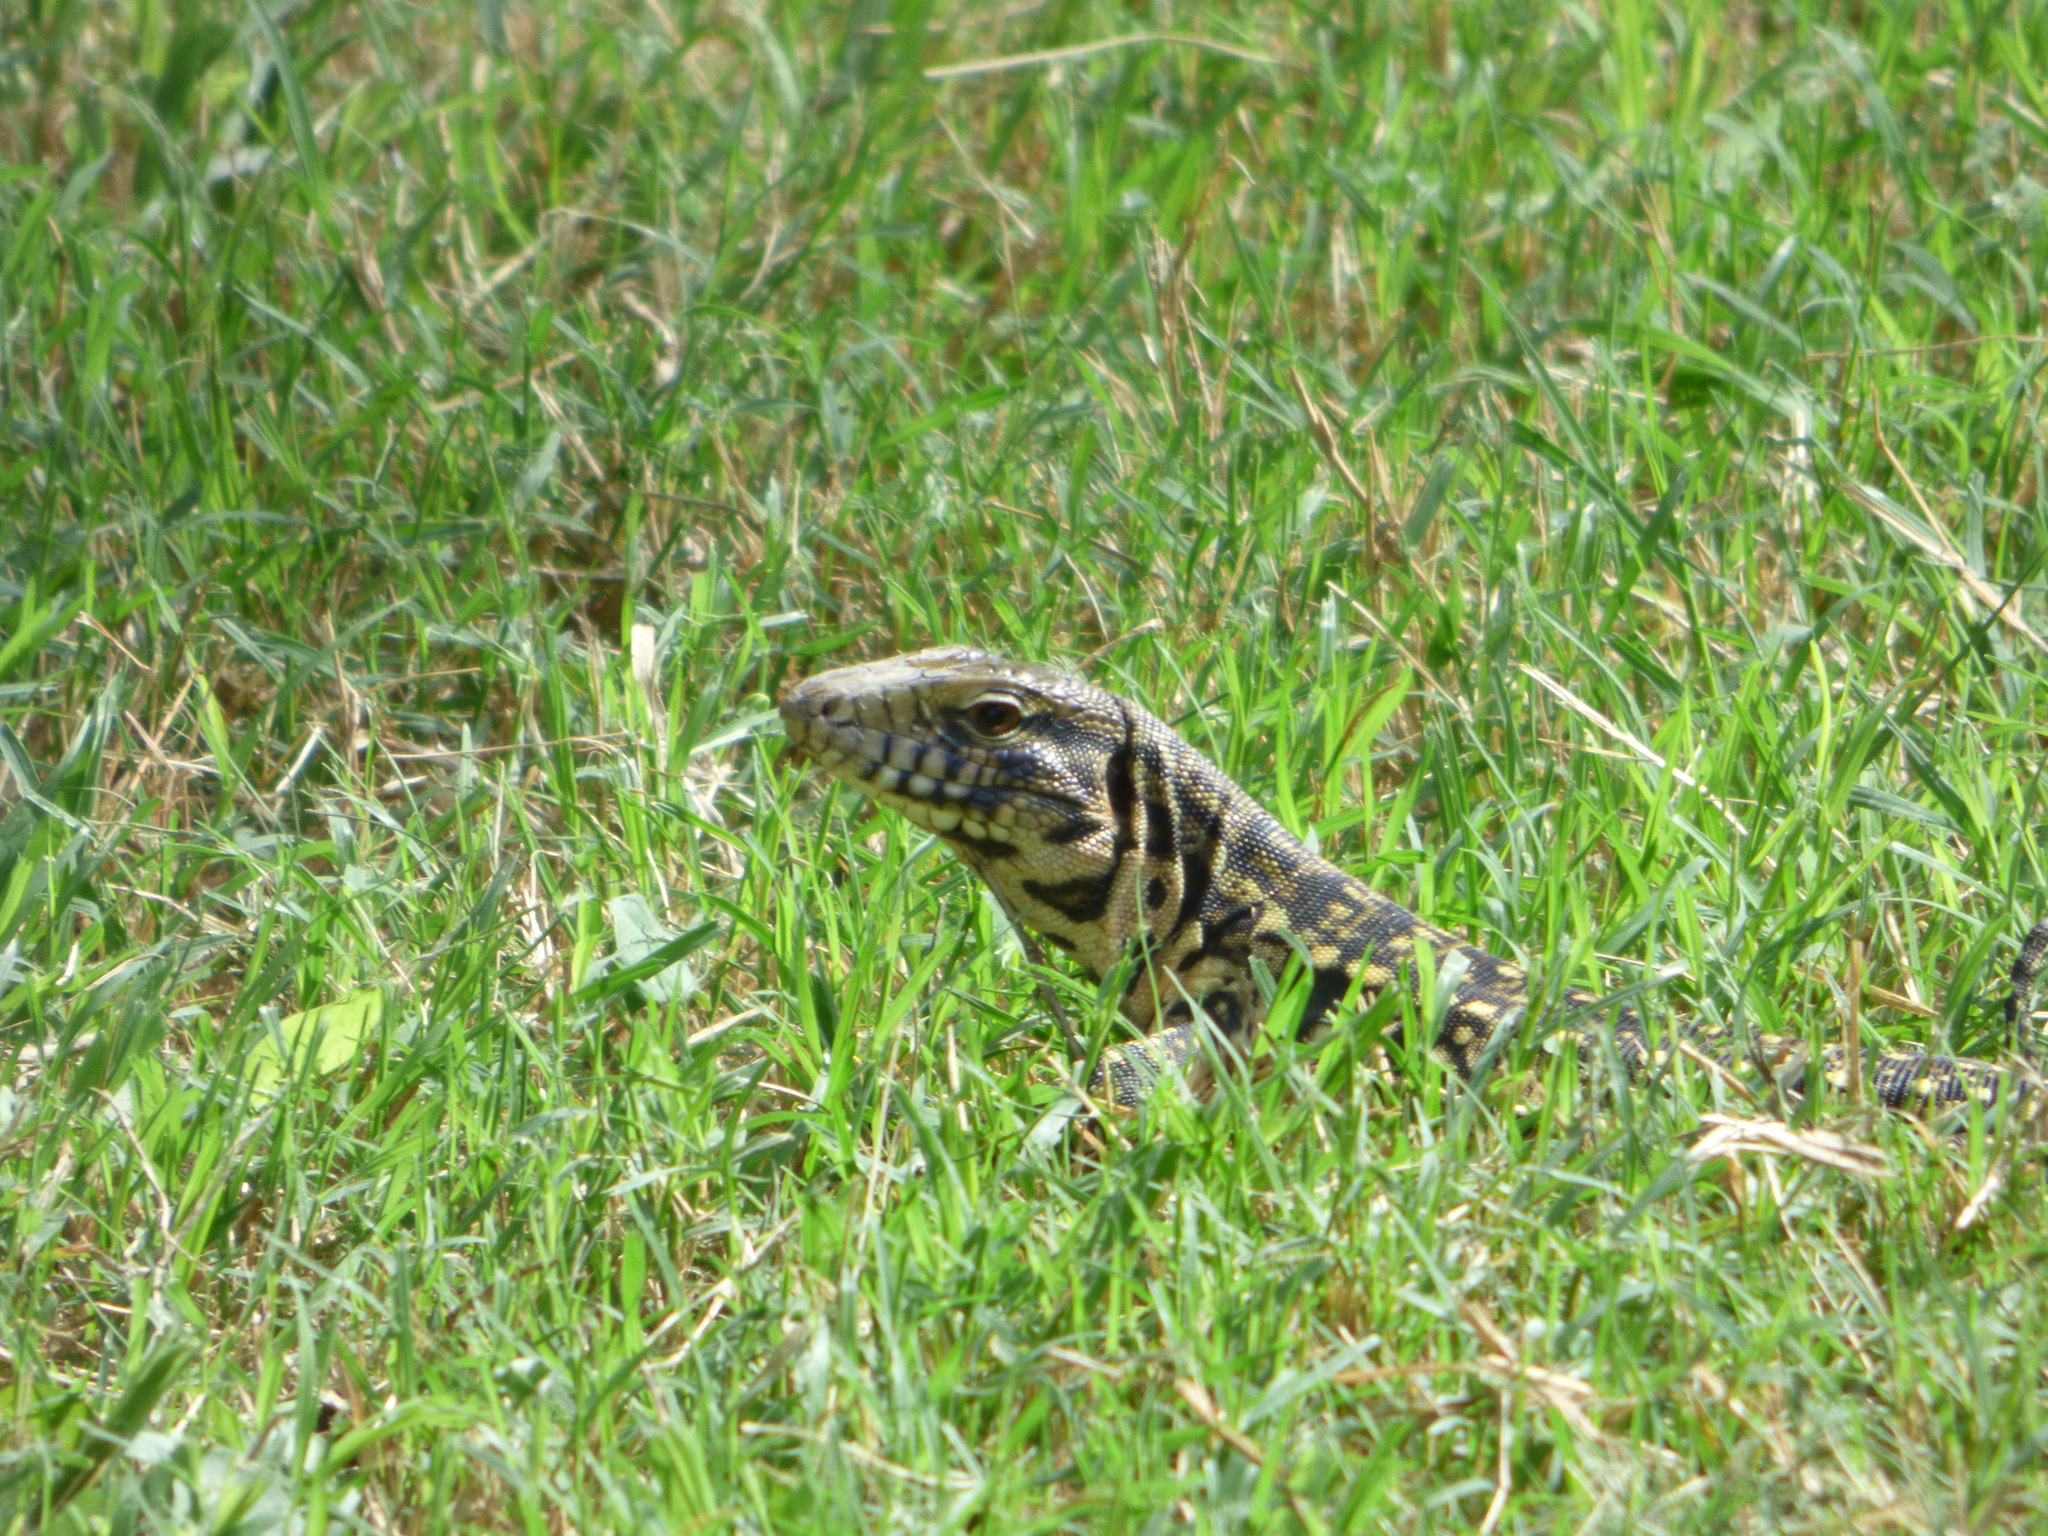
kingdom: Animalia
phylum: Chordata
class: Squamata
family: Teiidae
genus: Salvator
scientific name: Salvator merianae
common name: Argentine black and white tegu
